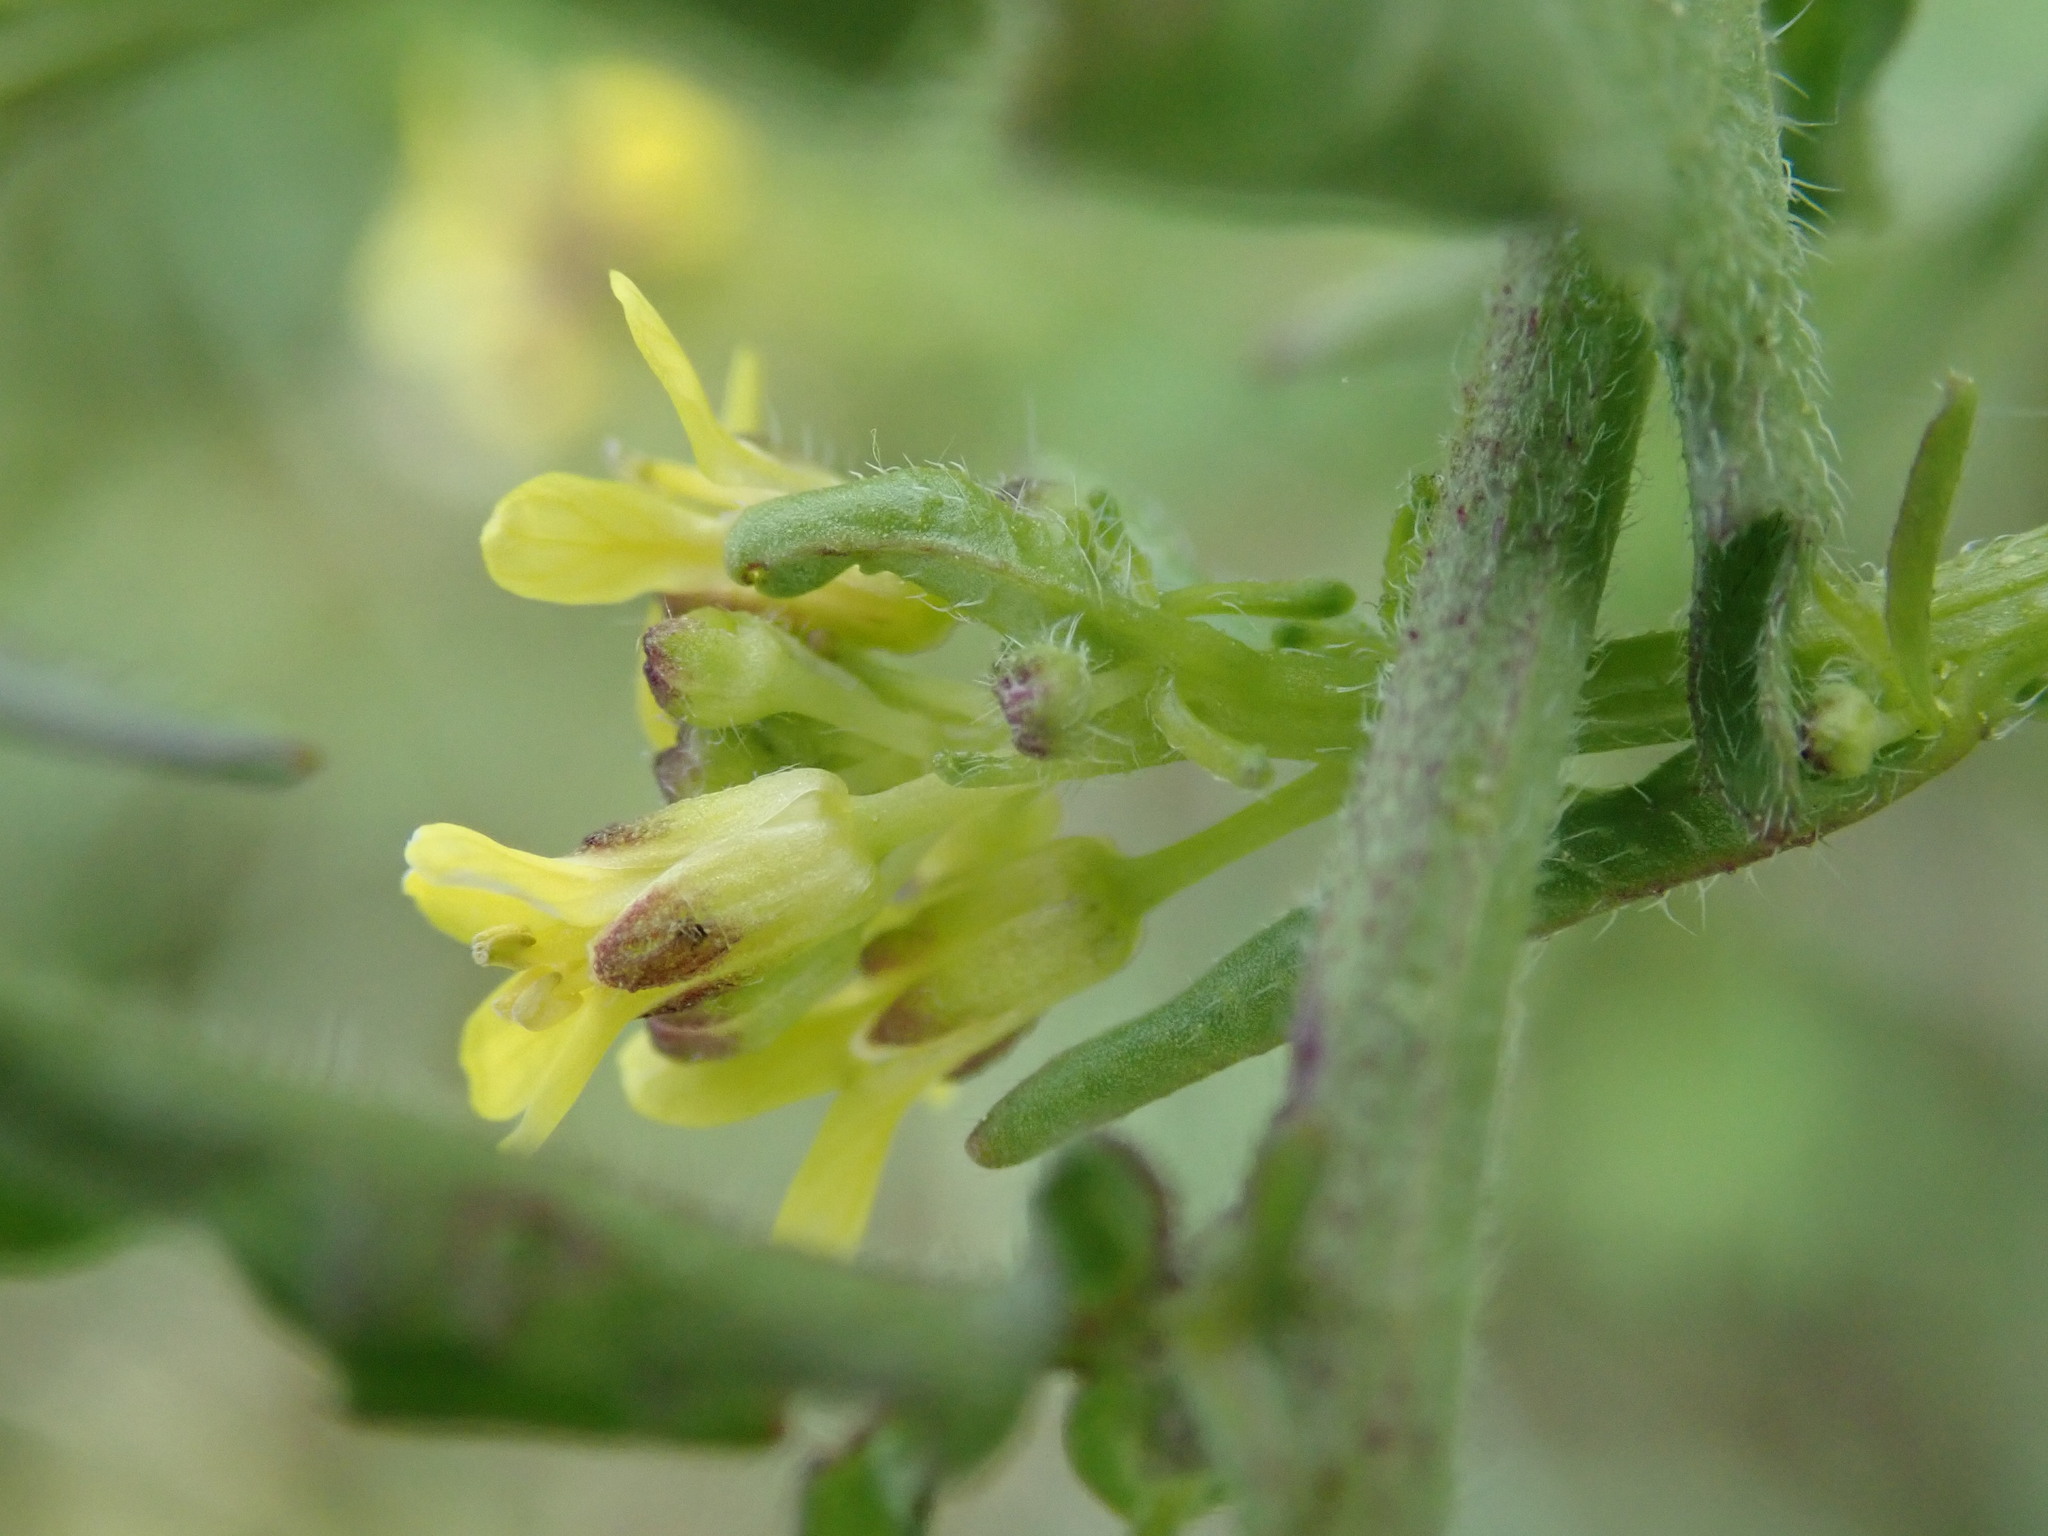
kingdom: Plantae
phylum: Tracheophyta
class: Magnoliopsida
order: Brassicales
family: Brassicaceae
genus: Sisymbrium
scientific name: Sisymbrium officinale
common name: Hedge mustard
